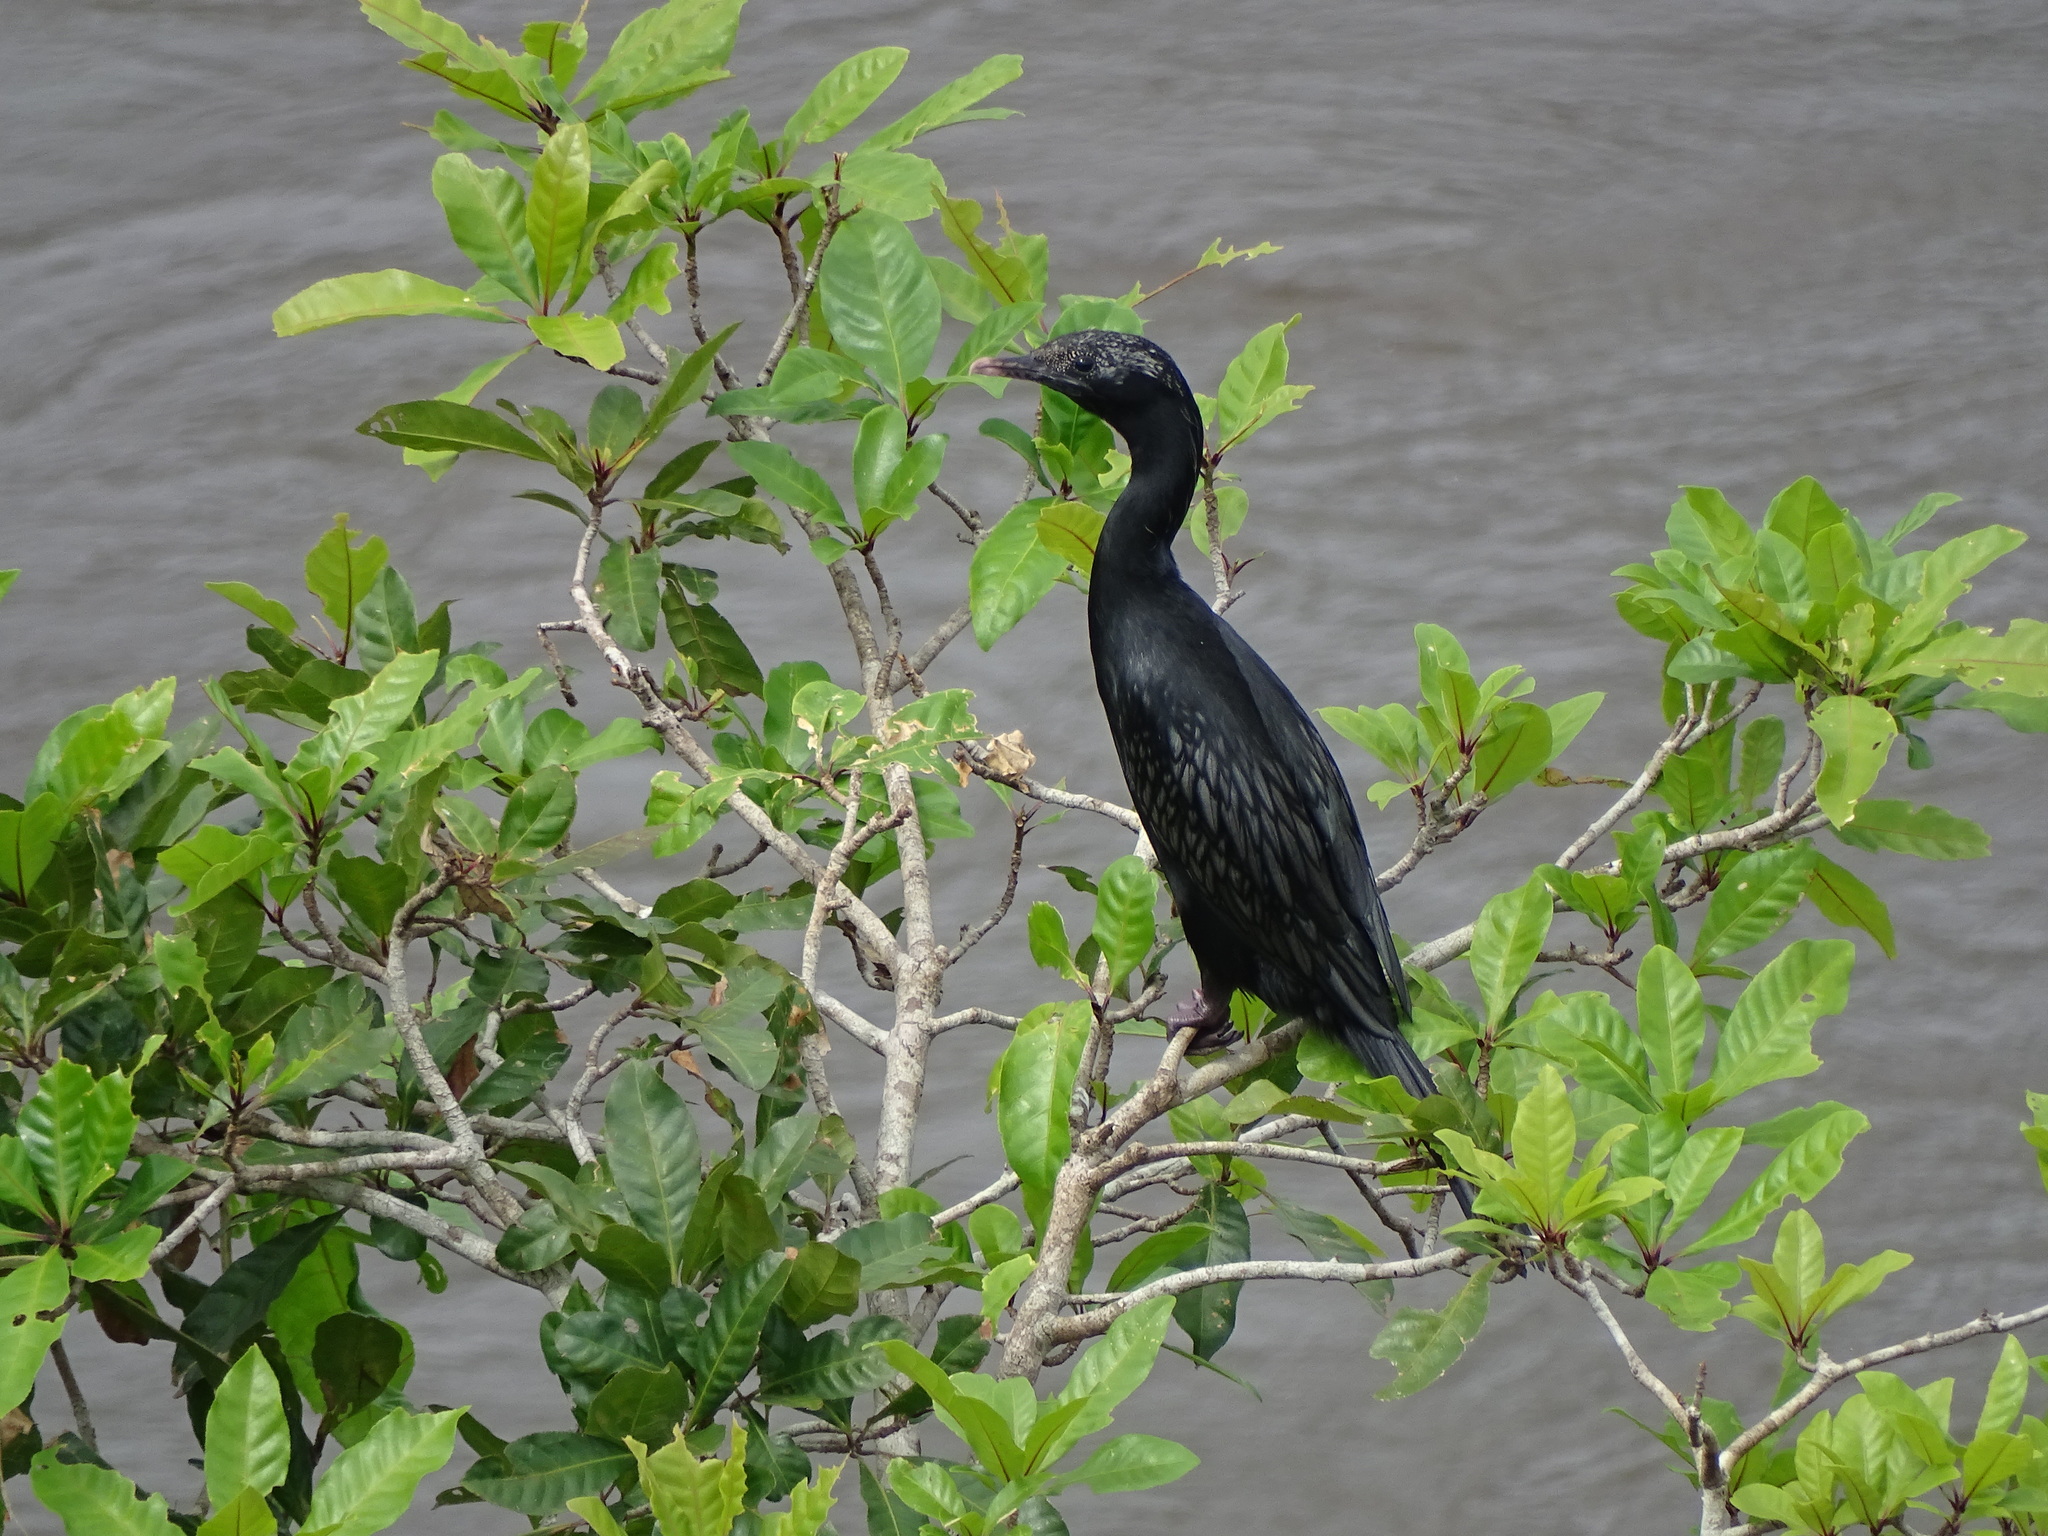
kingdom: Animalia
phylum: Chordata
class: Aves
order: Suliformes
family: Phalacrocoracidae
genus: Microcarbo
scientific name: Microcarbo niger
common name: Little cormorant
